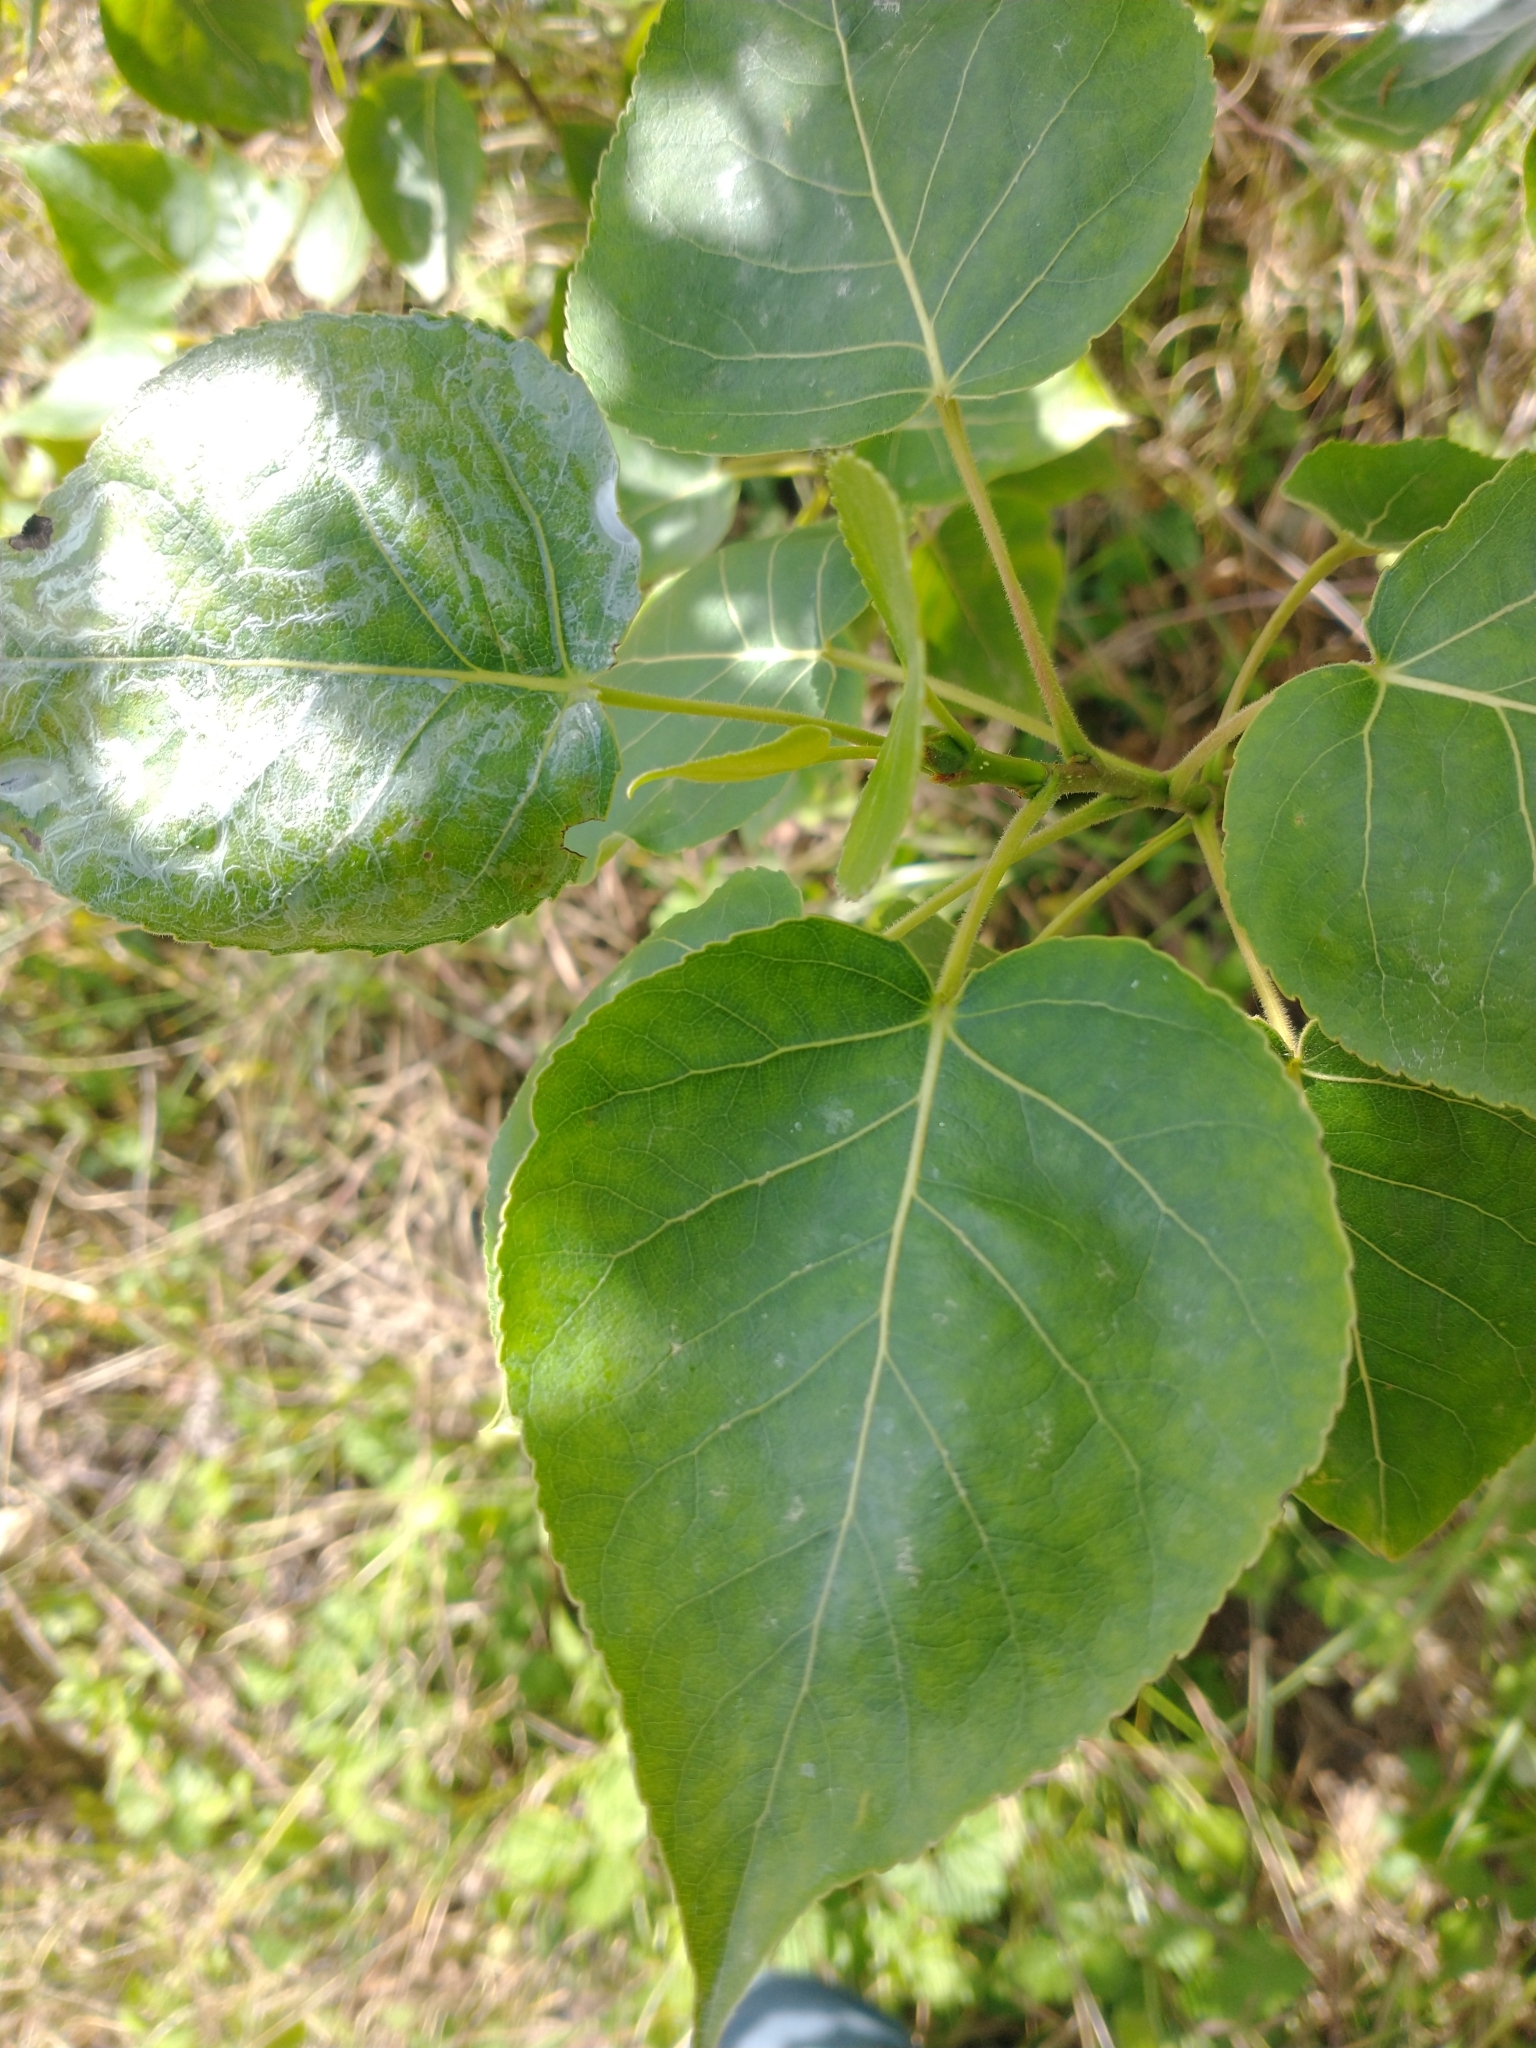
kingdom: Plantae
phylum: Tracheophyta
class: Magnoliopsida
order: Malpighiales
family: Salicaceae
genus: Populus
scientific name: Populus trichocarpa
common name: Black cottonwood
